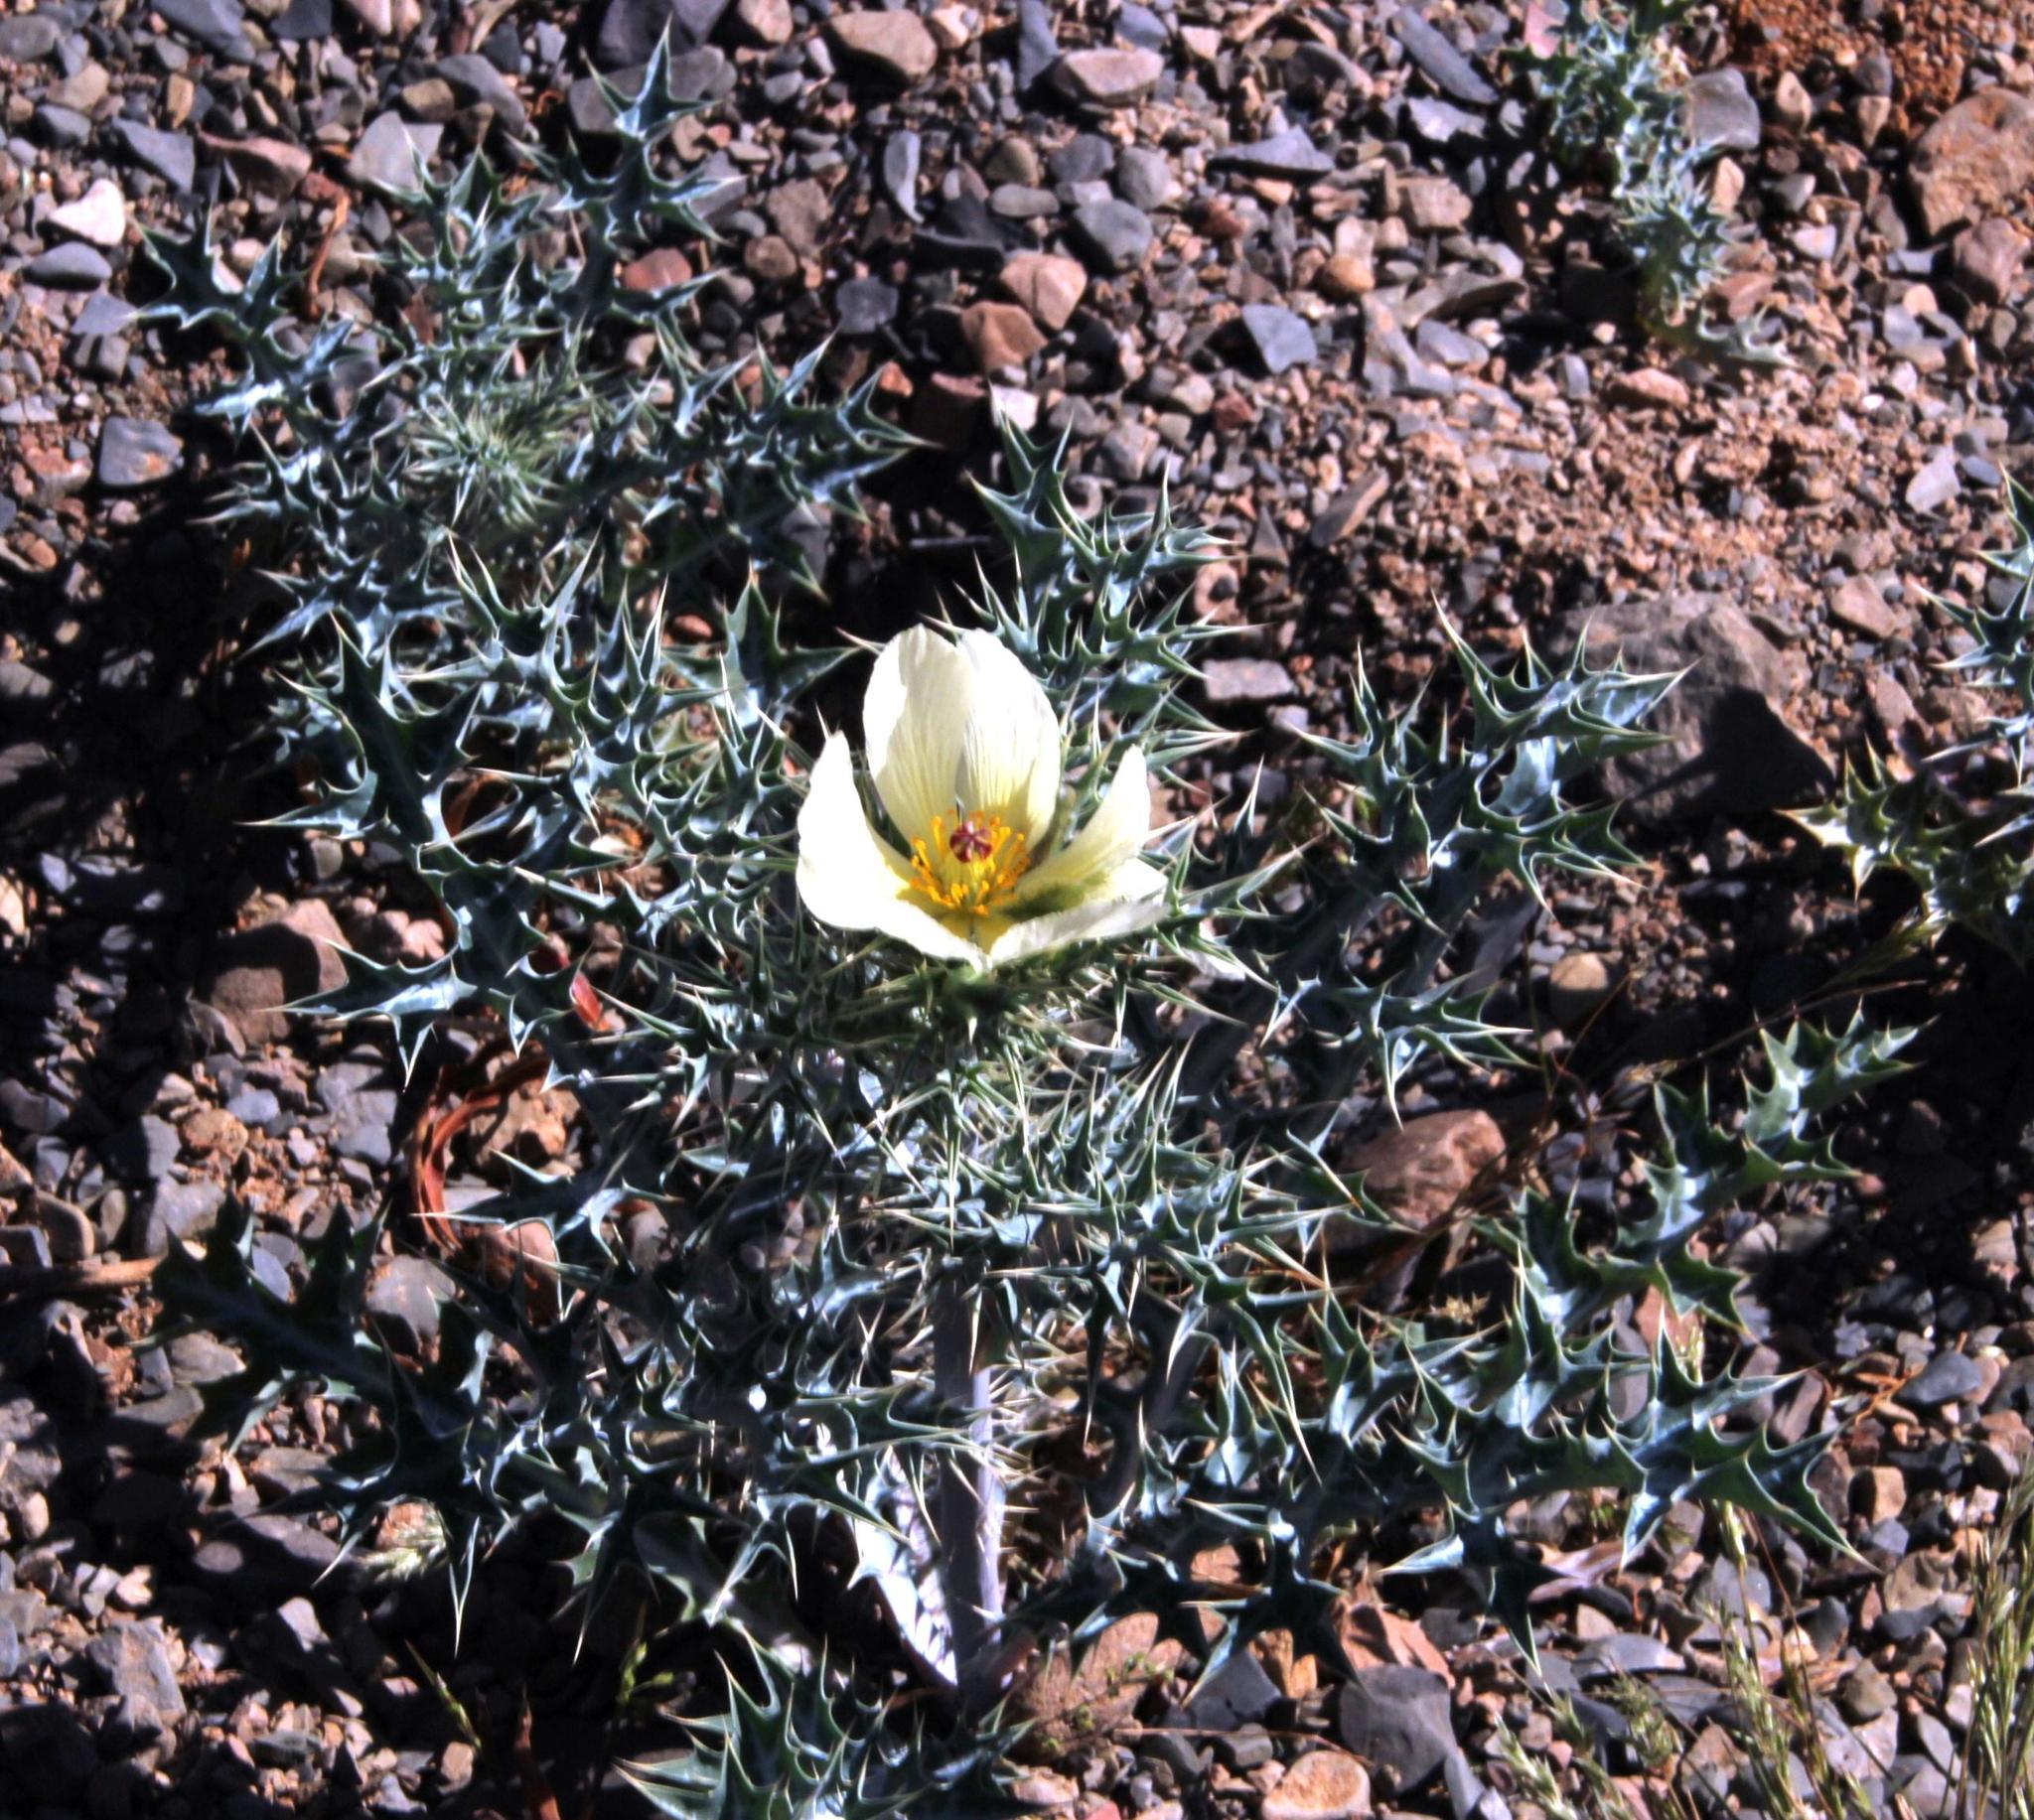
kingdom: Plantae
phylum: Tracheophyta
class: Magnoliopsida
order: Ranunculales
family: Papaveraceae
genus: Argemone
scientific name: Argemone ochroleuca
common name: White-flower mexican-poppy
